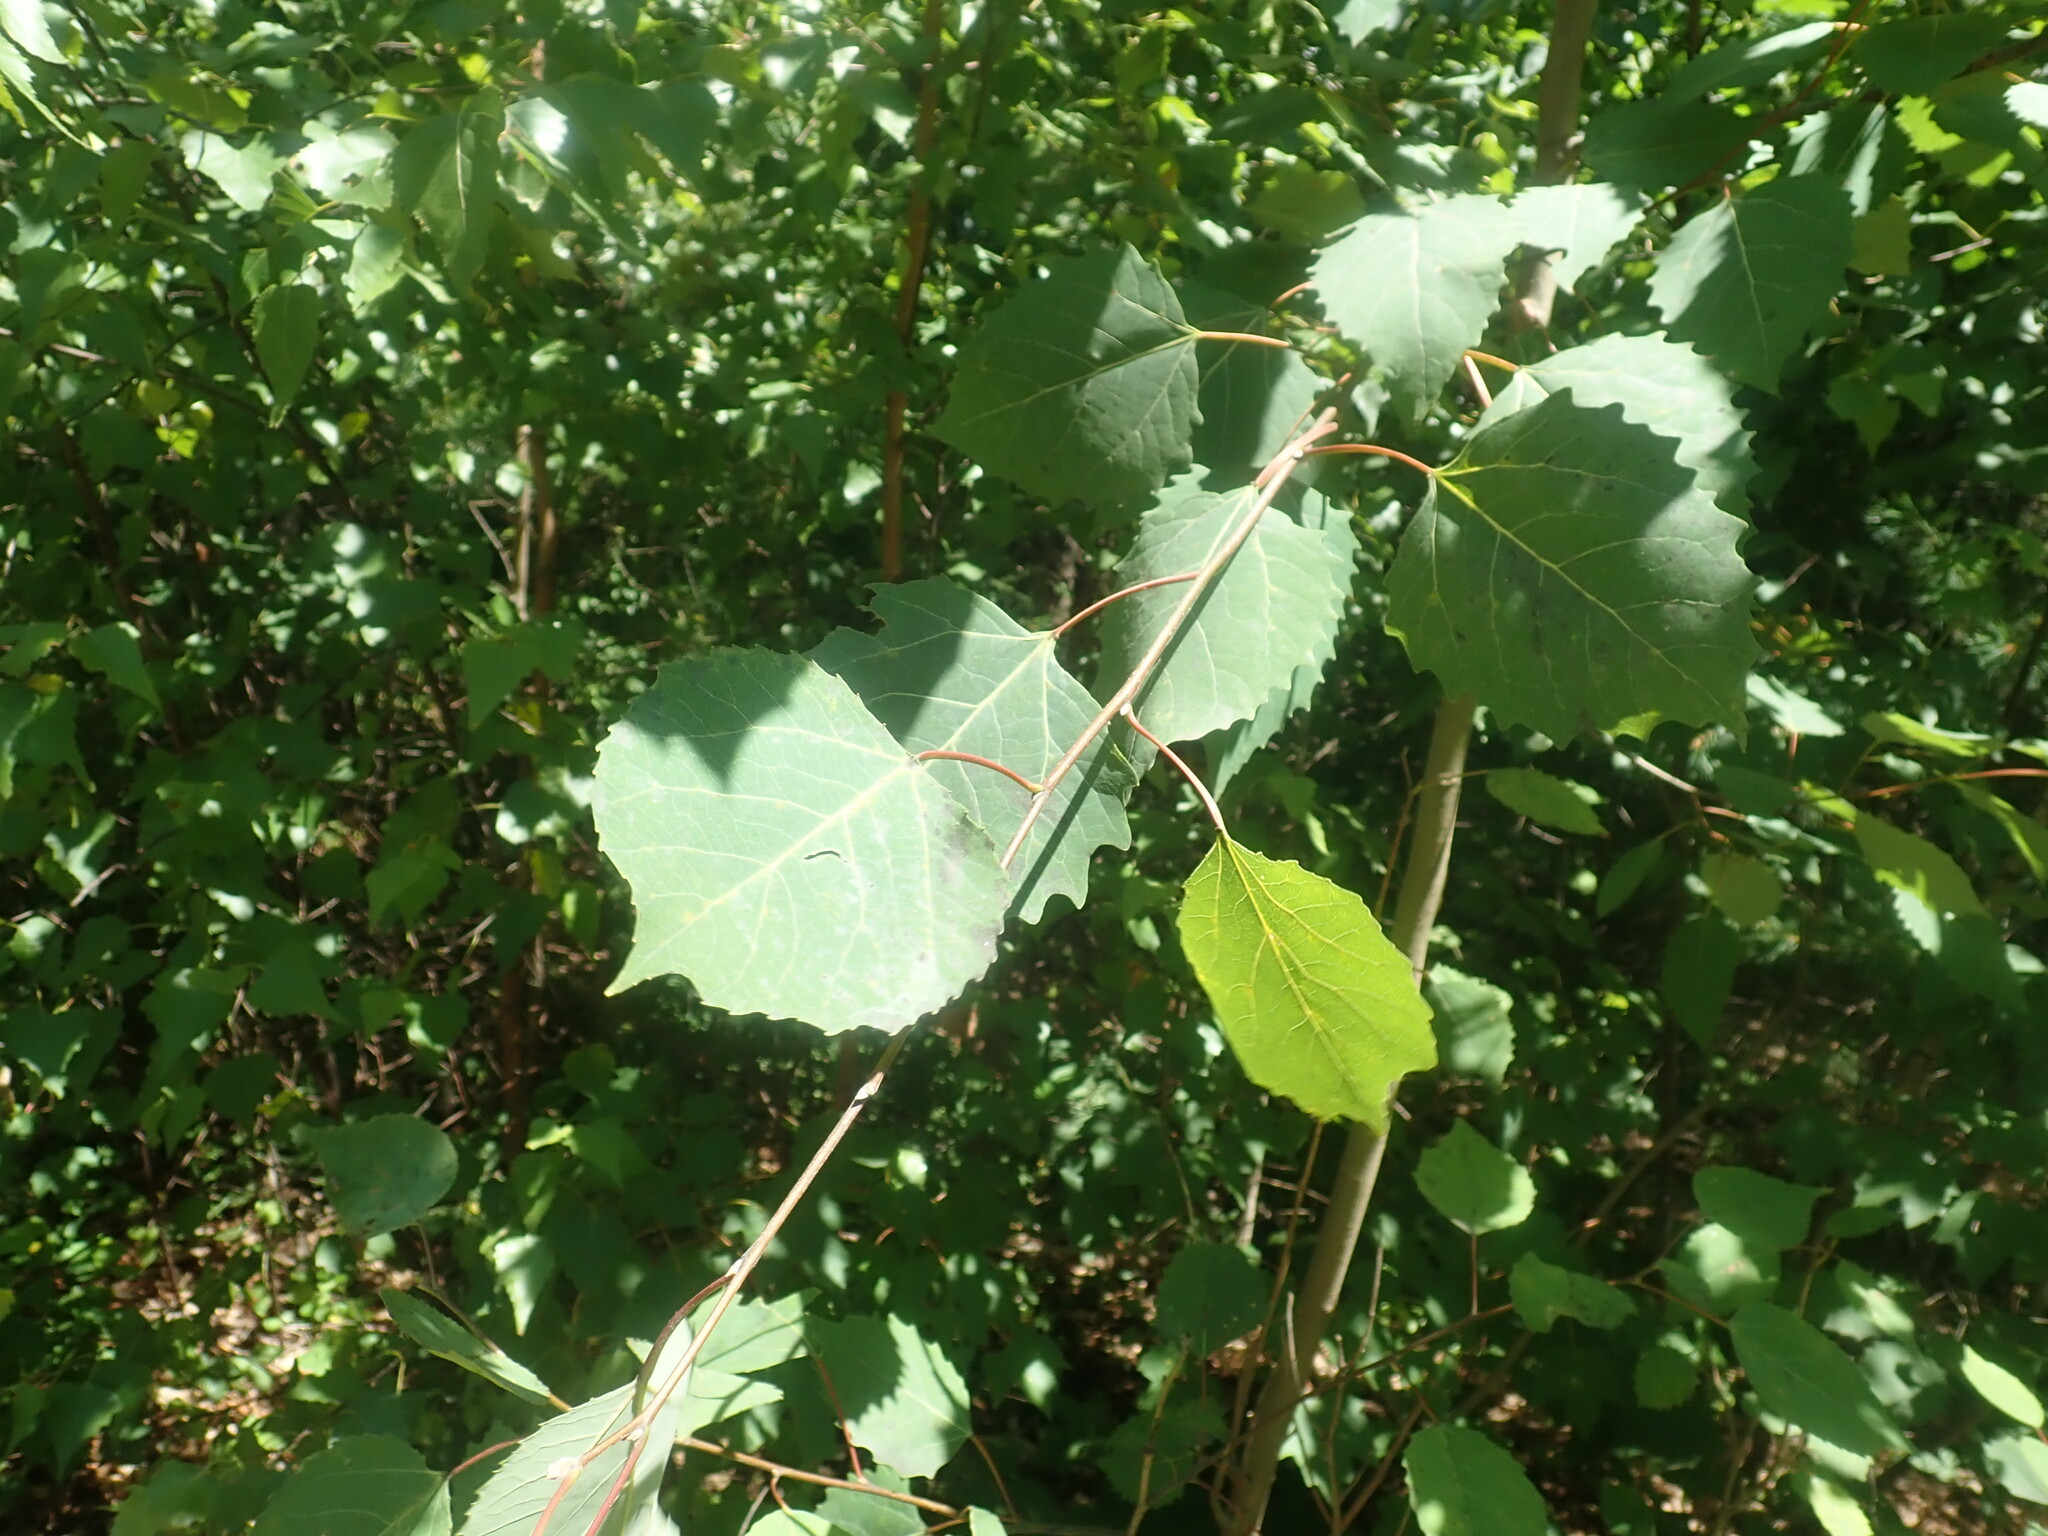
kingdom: Plantae
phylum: Tracheophyta
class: Magnoliopsida
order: Malpighiales
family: Salicaceae
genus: Populus
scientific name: Populus grandidentata
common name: Bigtooth aspen
